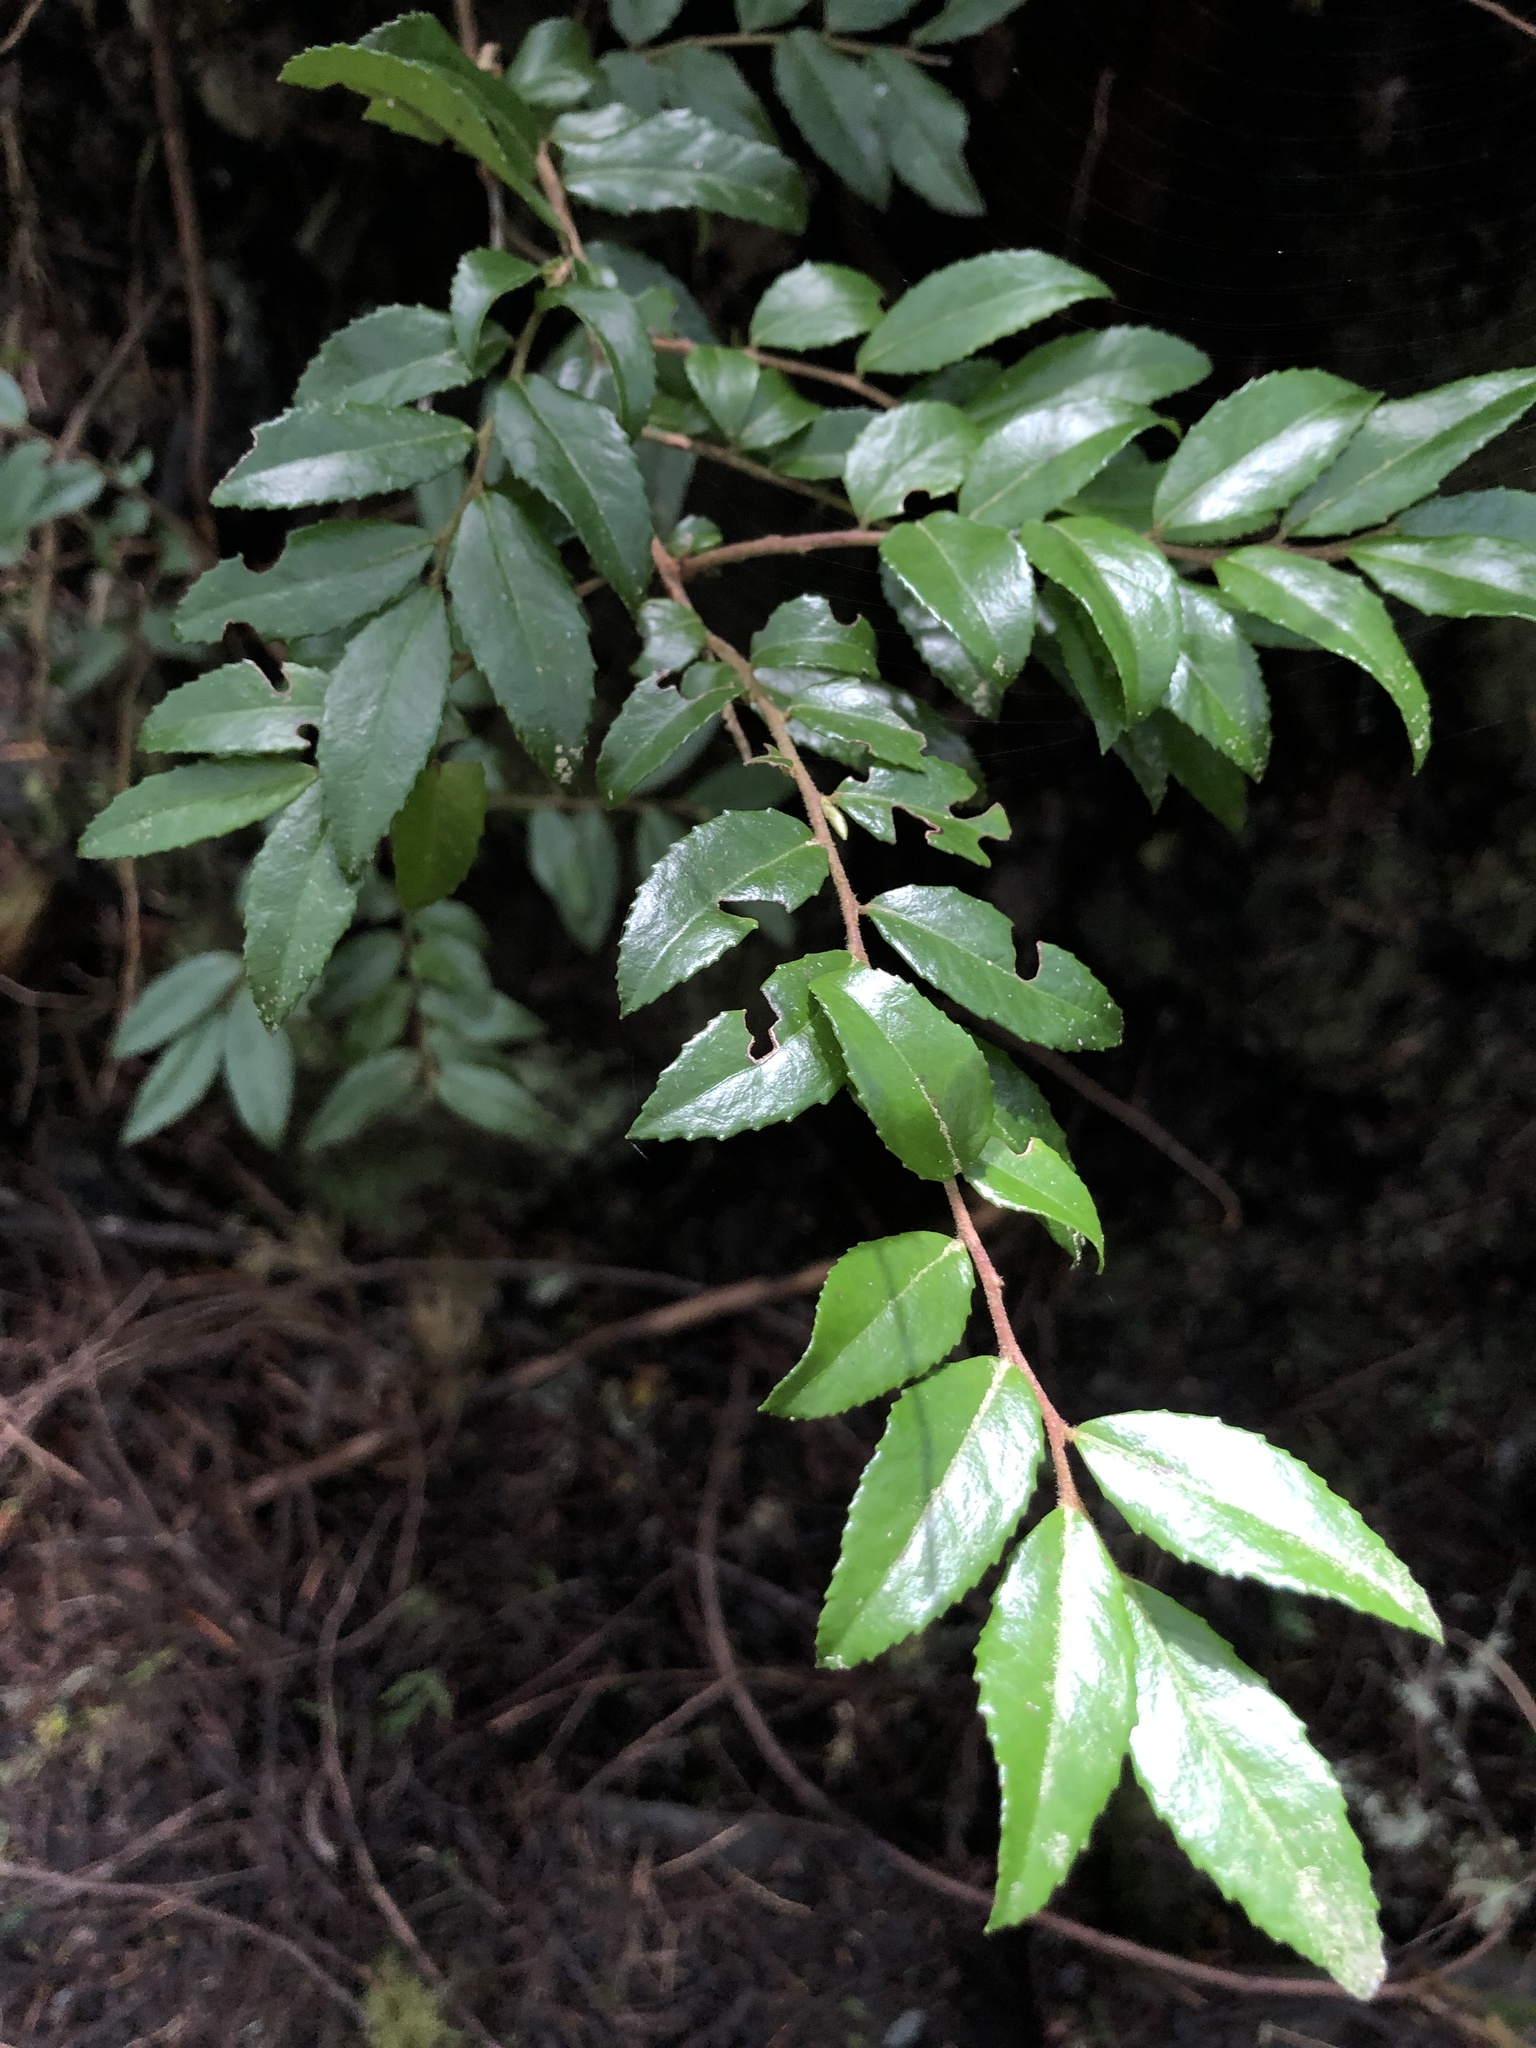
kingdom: Plantae
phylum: Tracheophyta
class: Magnoliopsida
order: Ericales
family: Ericaceae
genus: Vaccinium
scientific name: Vaccinium ovatum
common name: California-huckleberry
